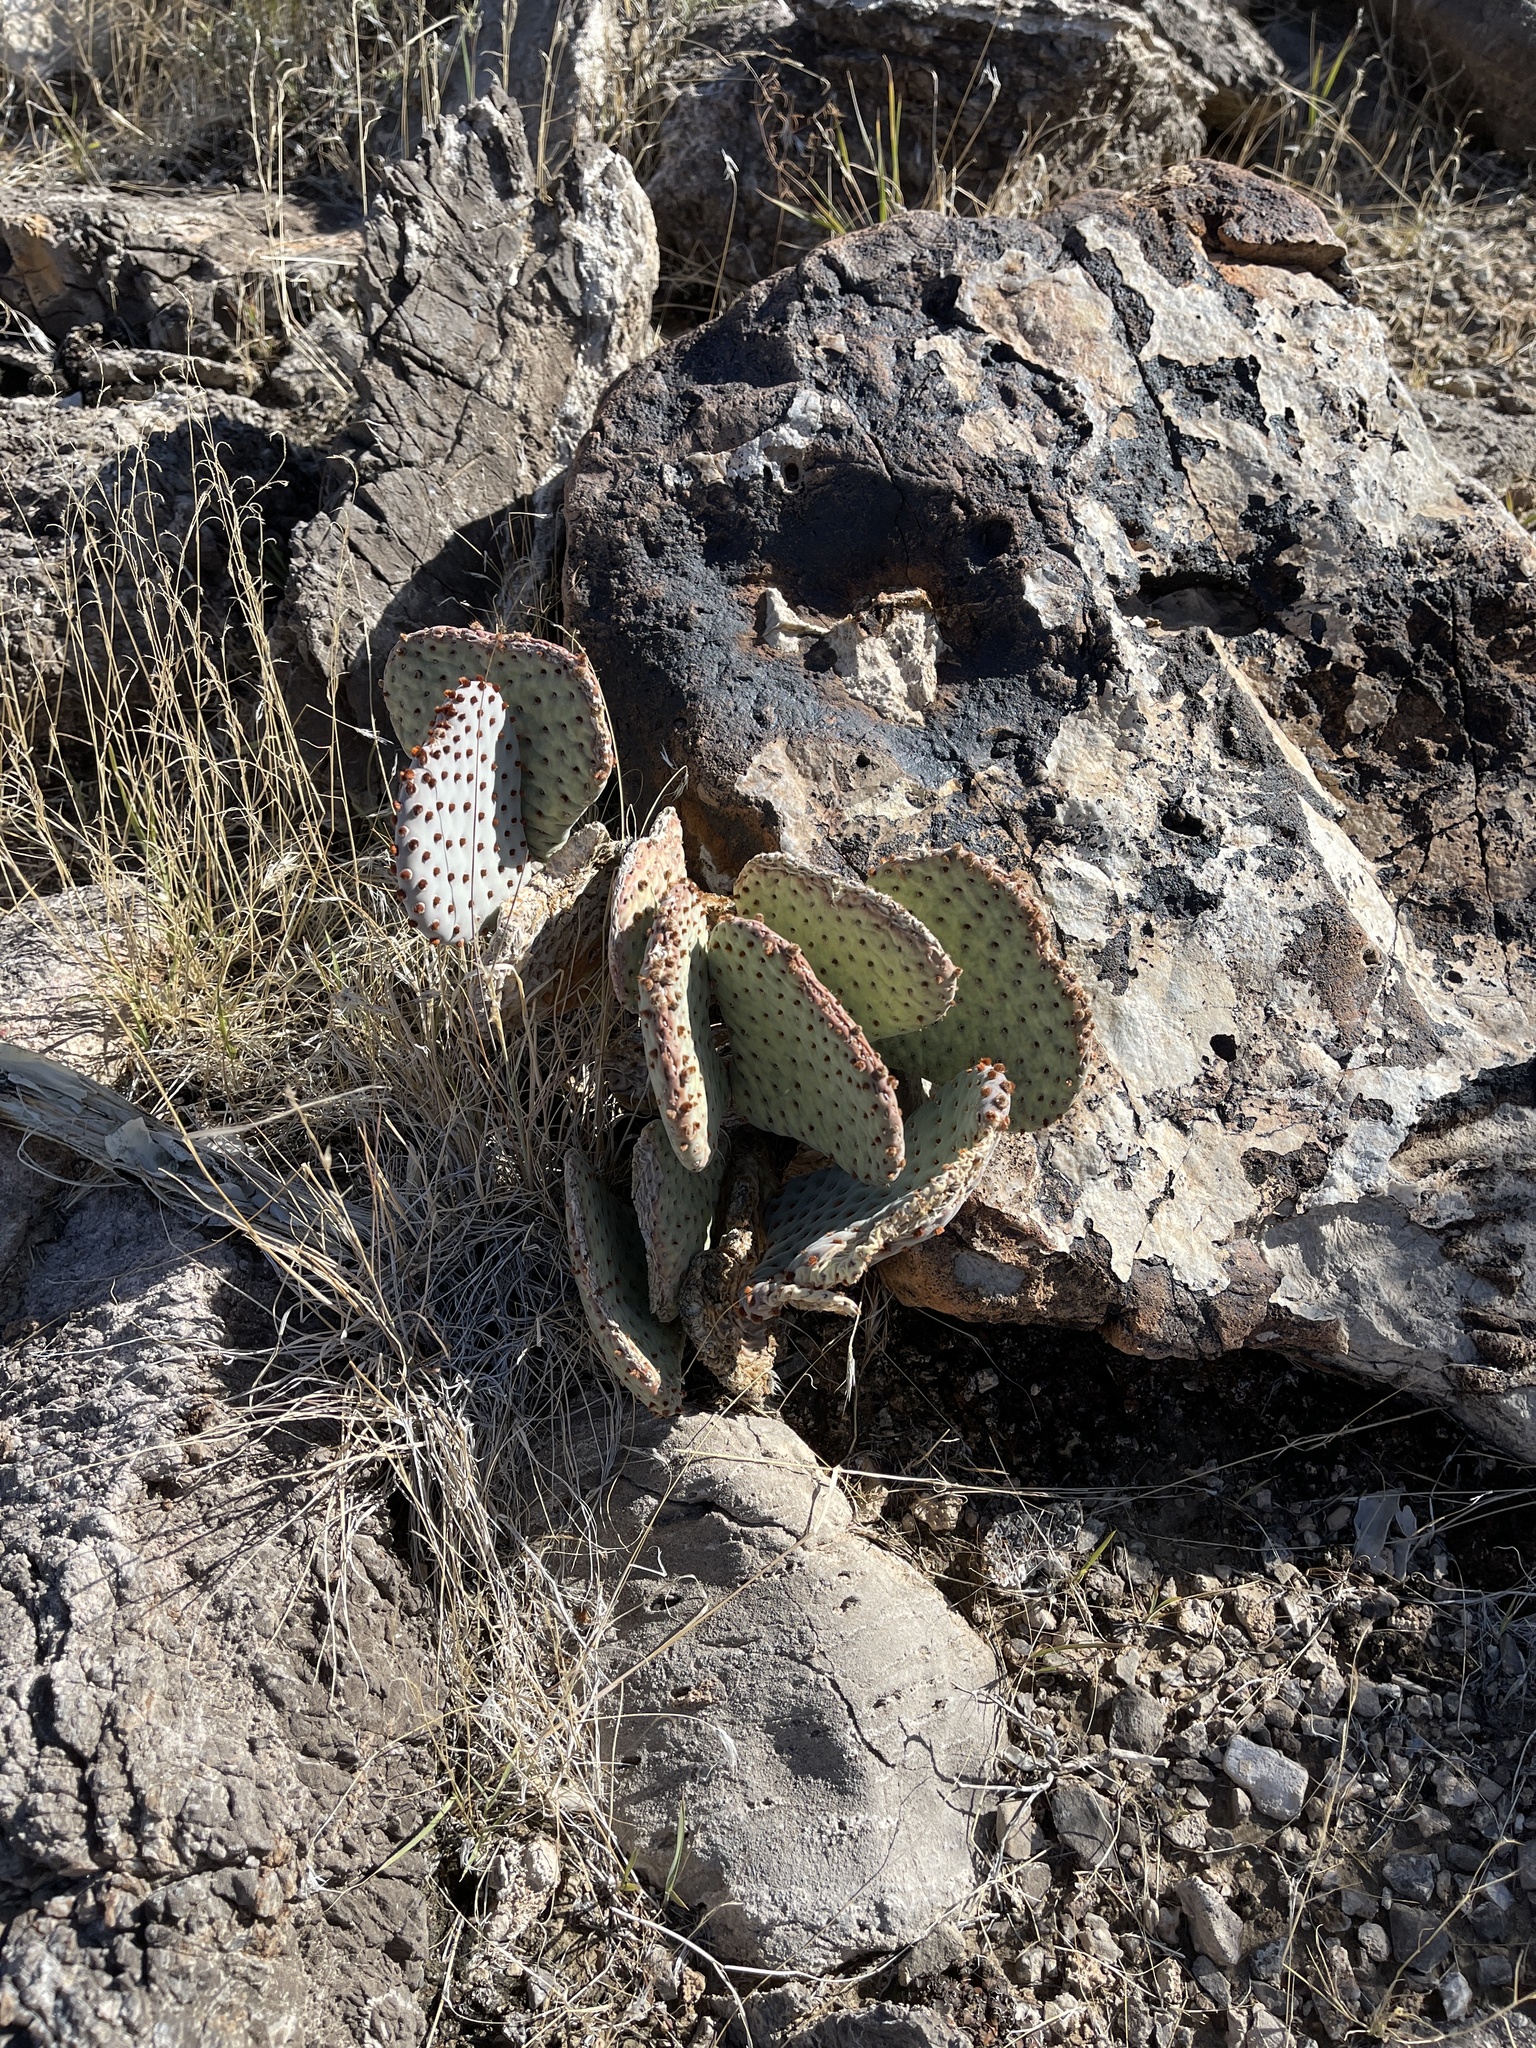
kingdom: Plantae
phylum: Tracheophyta
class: Magnoliopsida
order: Caryophyllales
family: Cactaceae
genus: Opuntia
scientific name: Opuntia basilaris
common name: Beavertail prickly-pear
